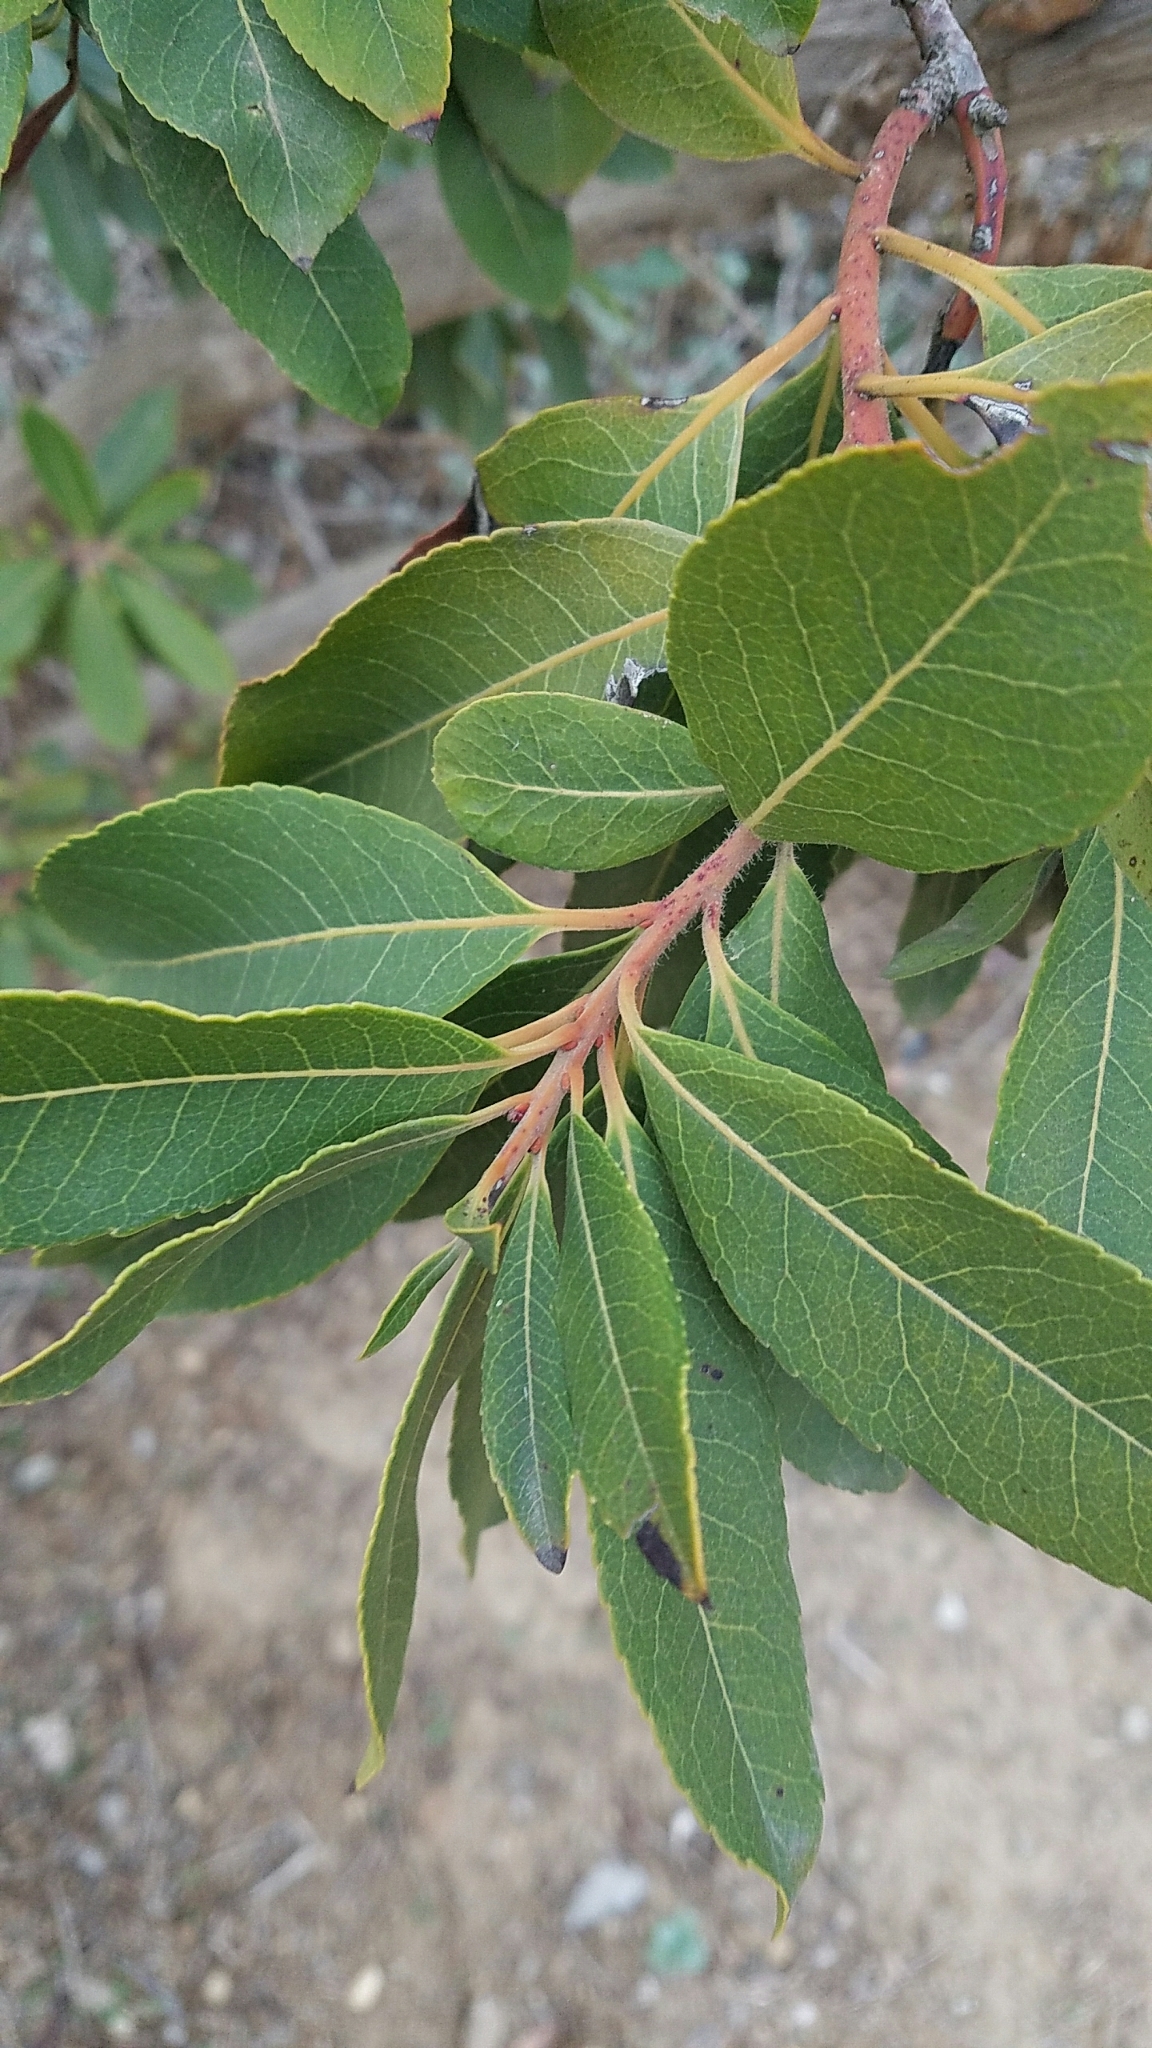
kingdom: Plantae
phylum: Tracheophyta
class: Magnoliopsida
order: Rosales
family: Rosaceae
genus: Heteromeles
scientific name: Heteromeles arbutifolia
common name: California-holly
